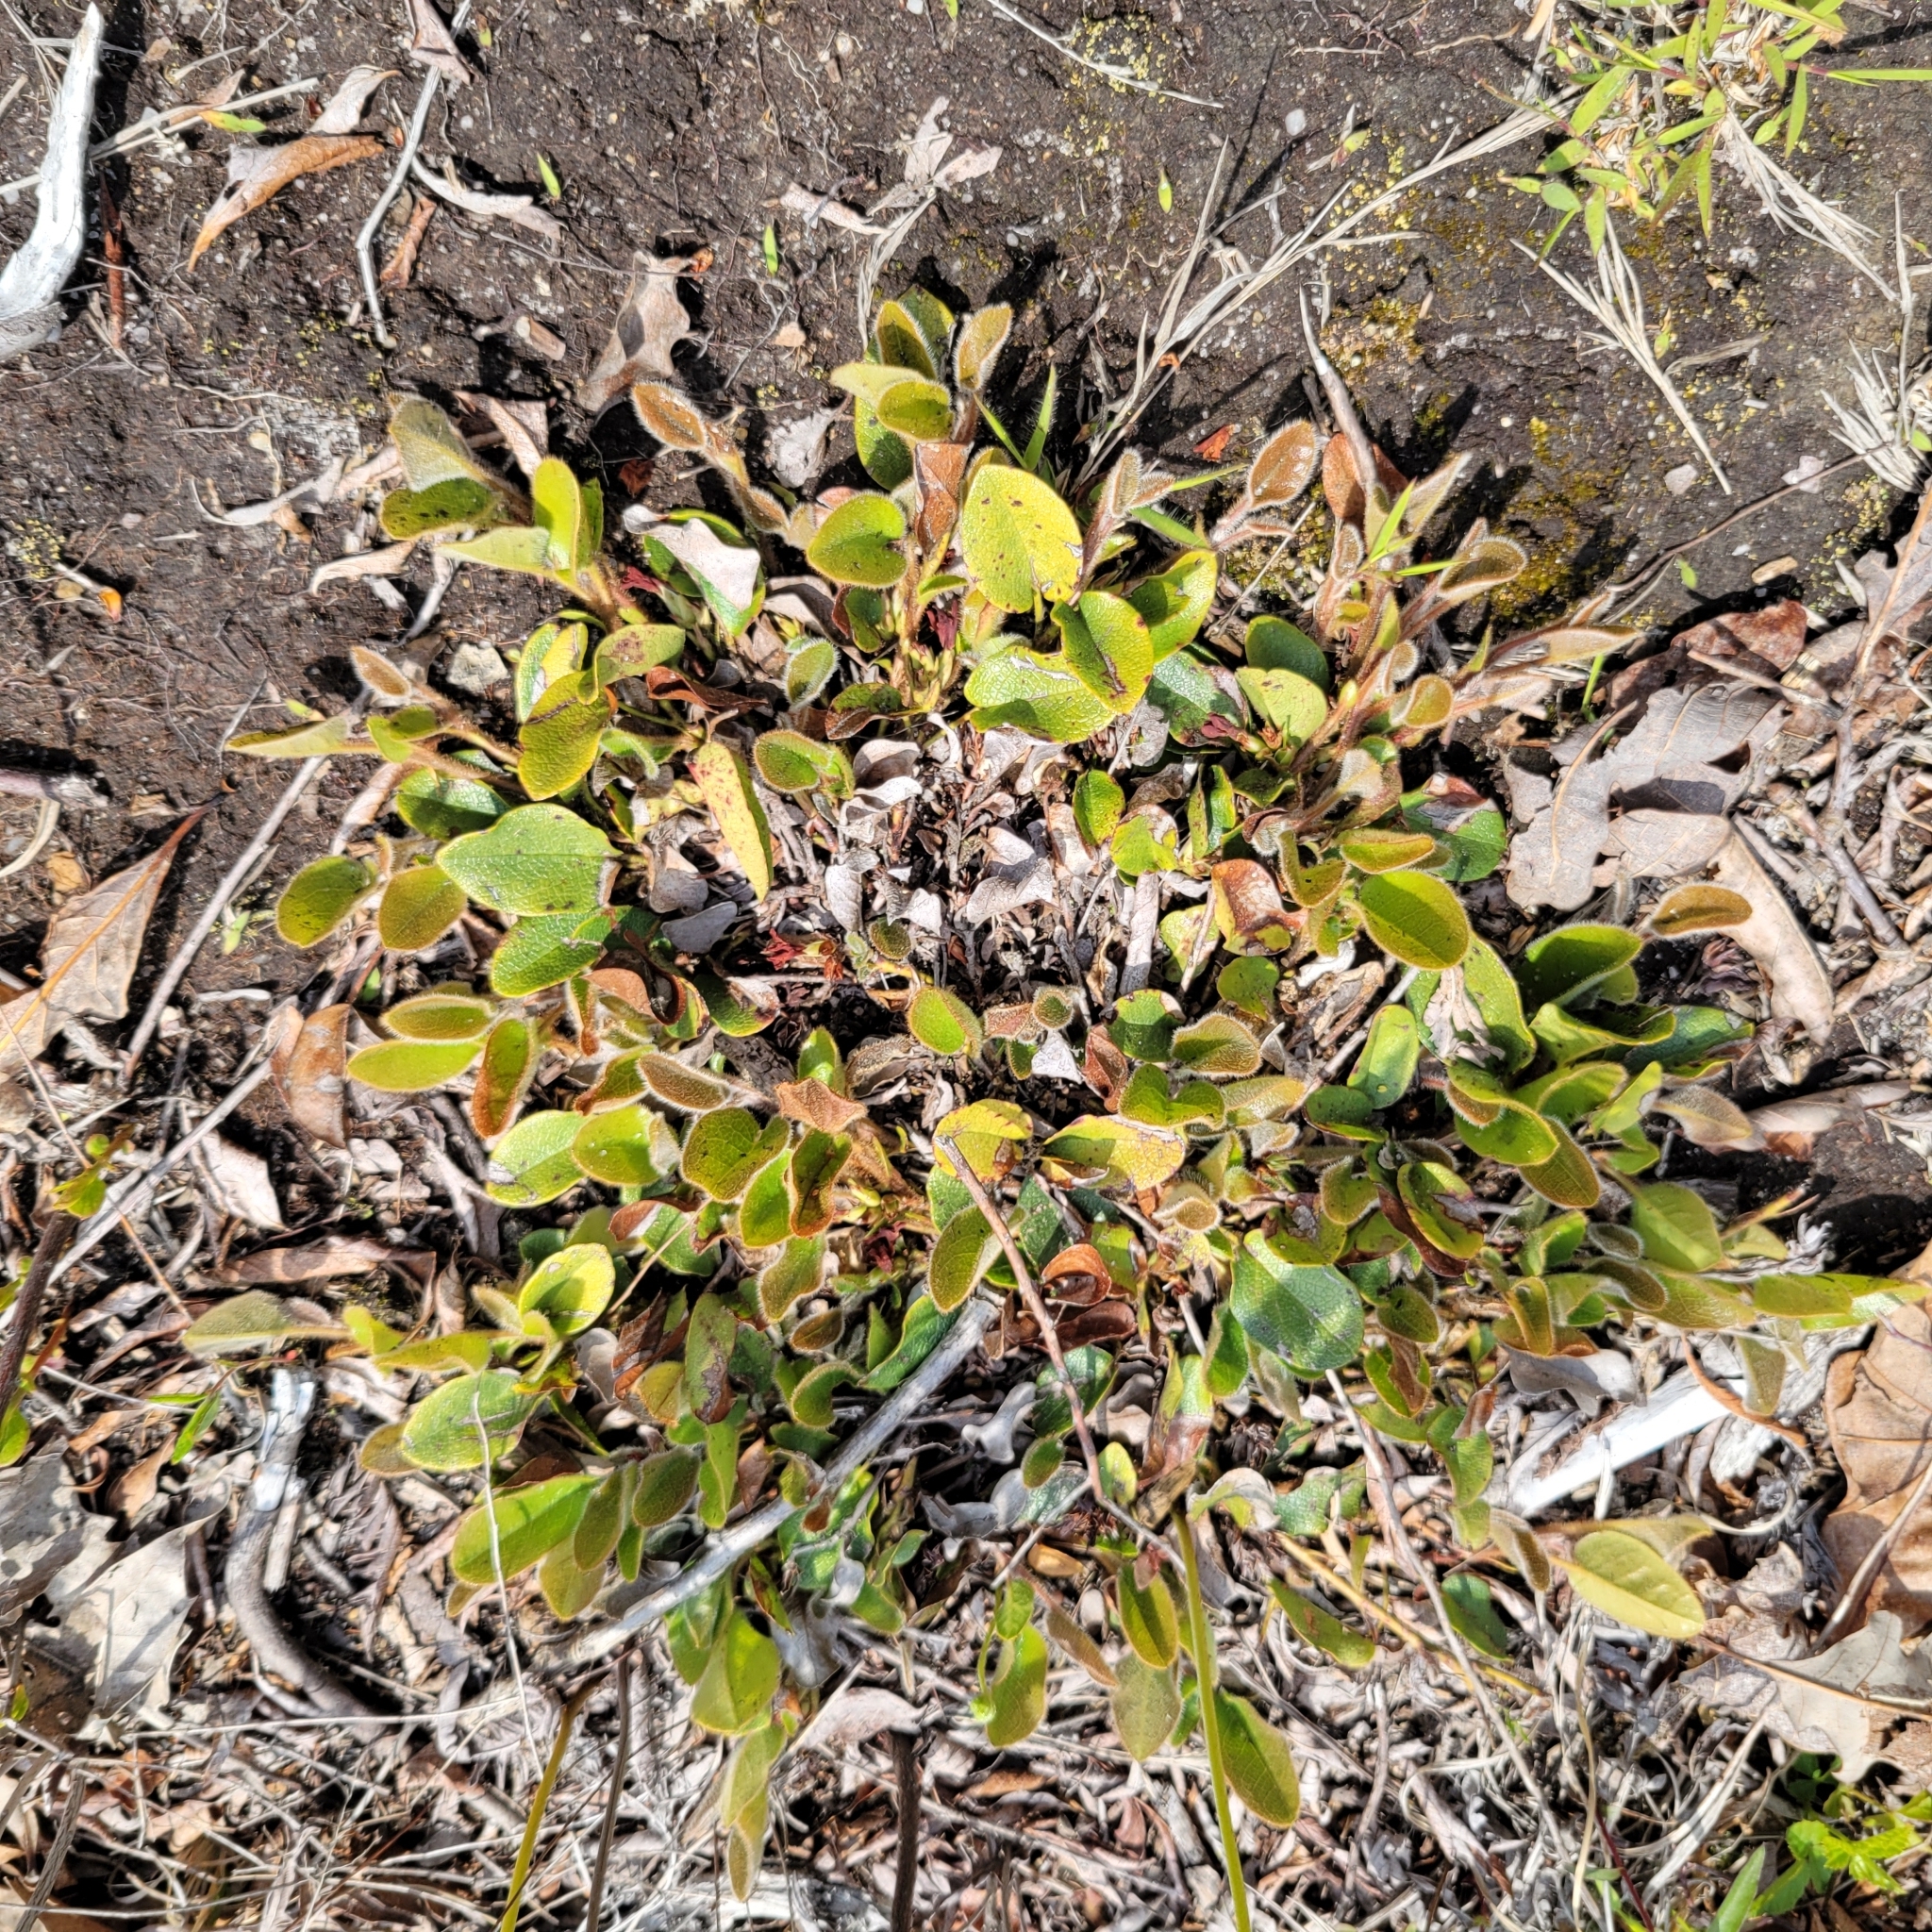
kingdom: Plantae
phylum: Tracheophyta
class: Magnoliopsida
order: Ericales
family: Ericaceae
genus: Epigaea
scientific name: Epigaea repens
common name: Gravelroot
